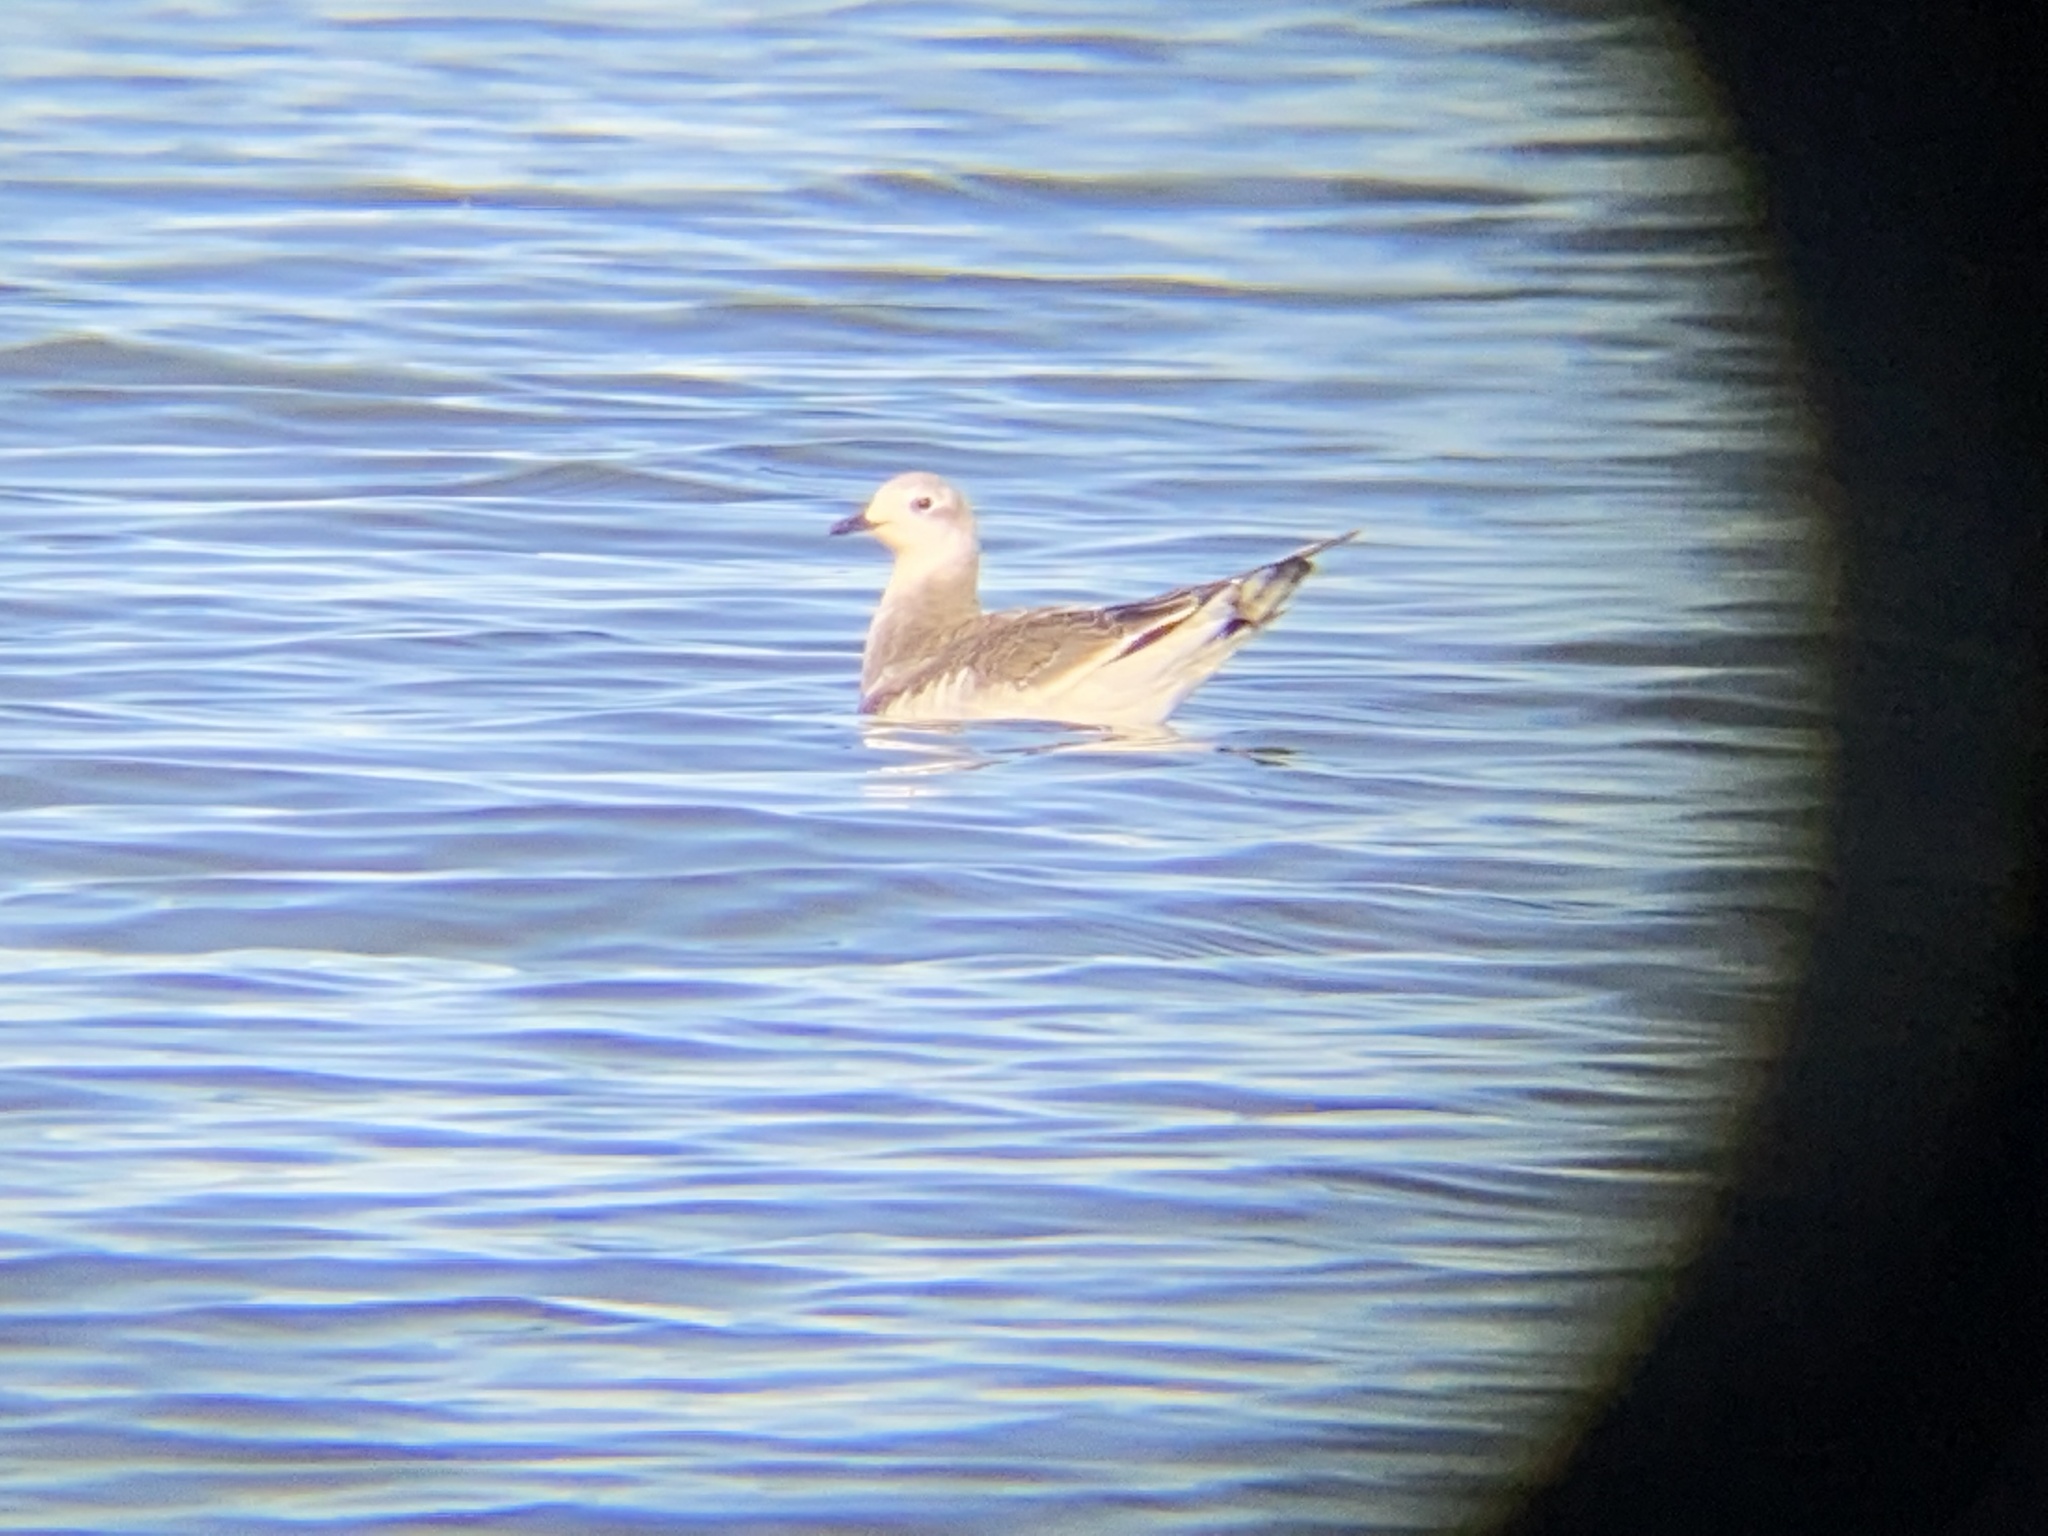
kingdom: Animalia
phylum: Chordata
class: Aves
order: Charadriiformes
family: Laridae
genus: Xema
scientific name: Xema sabini
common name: Sabine's gull
